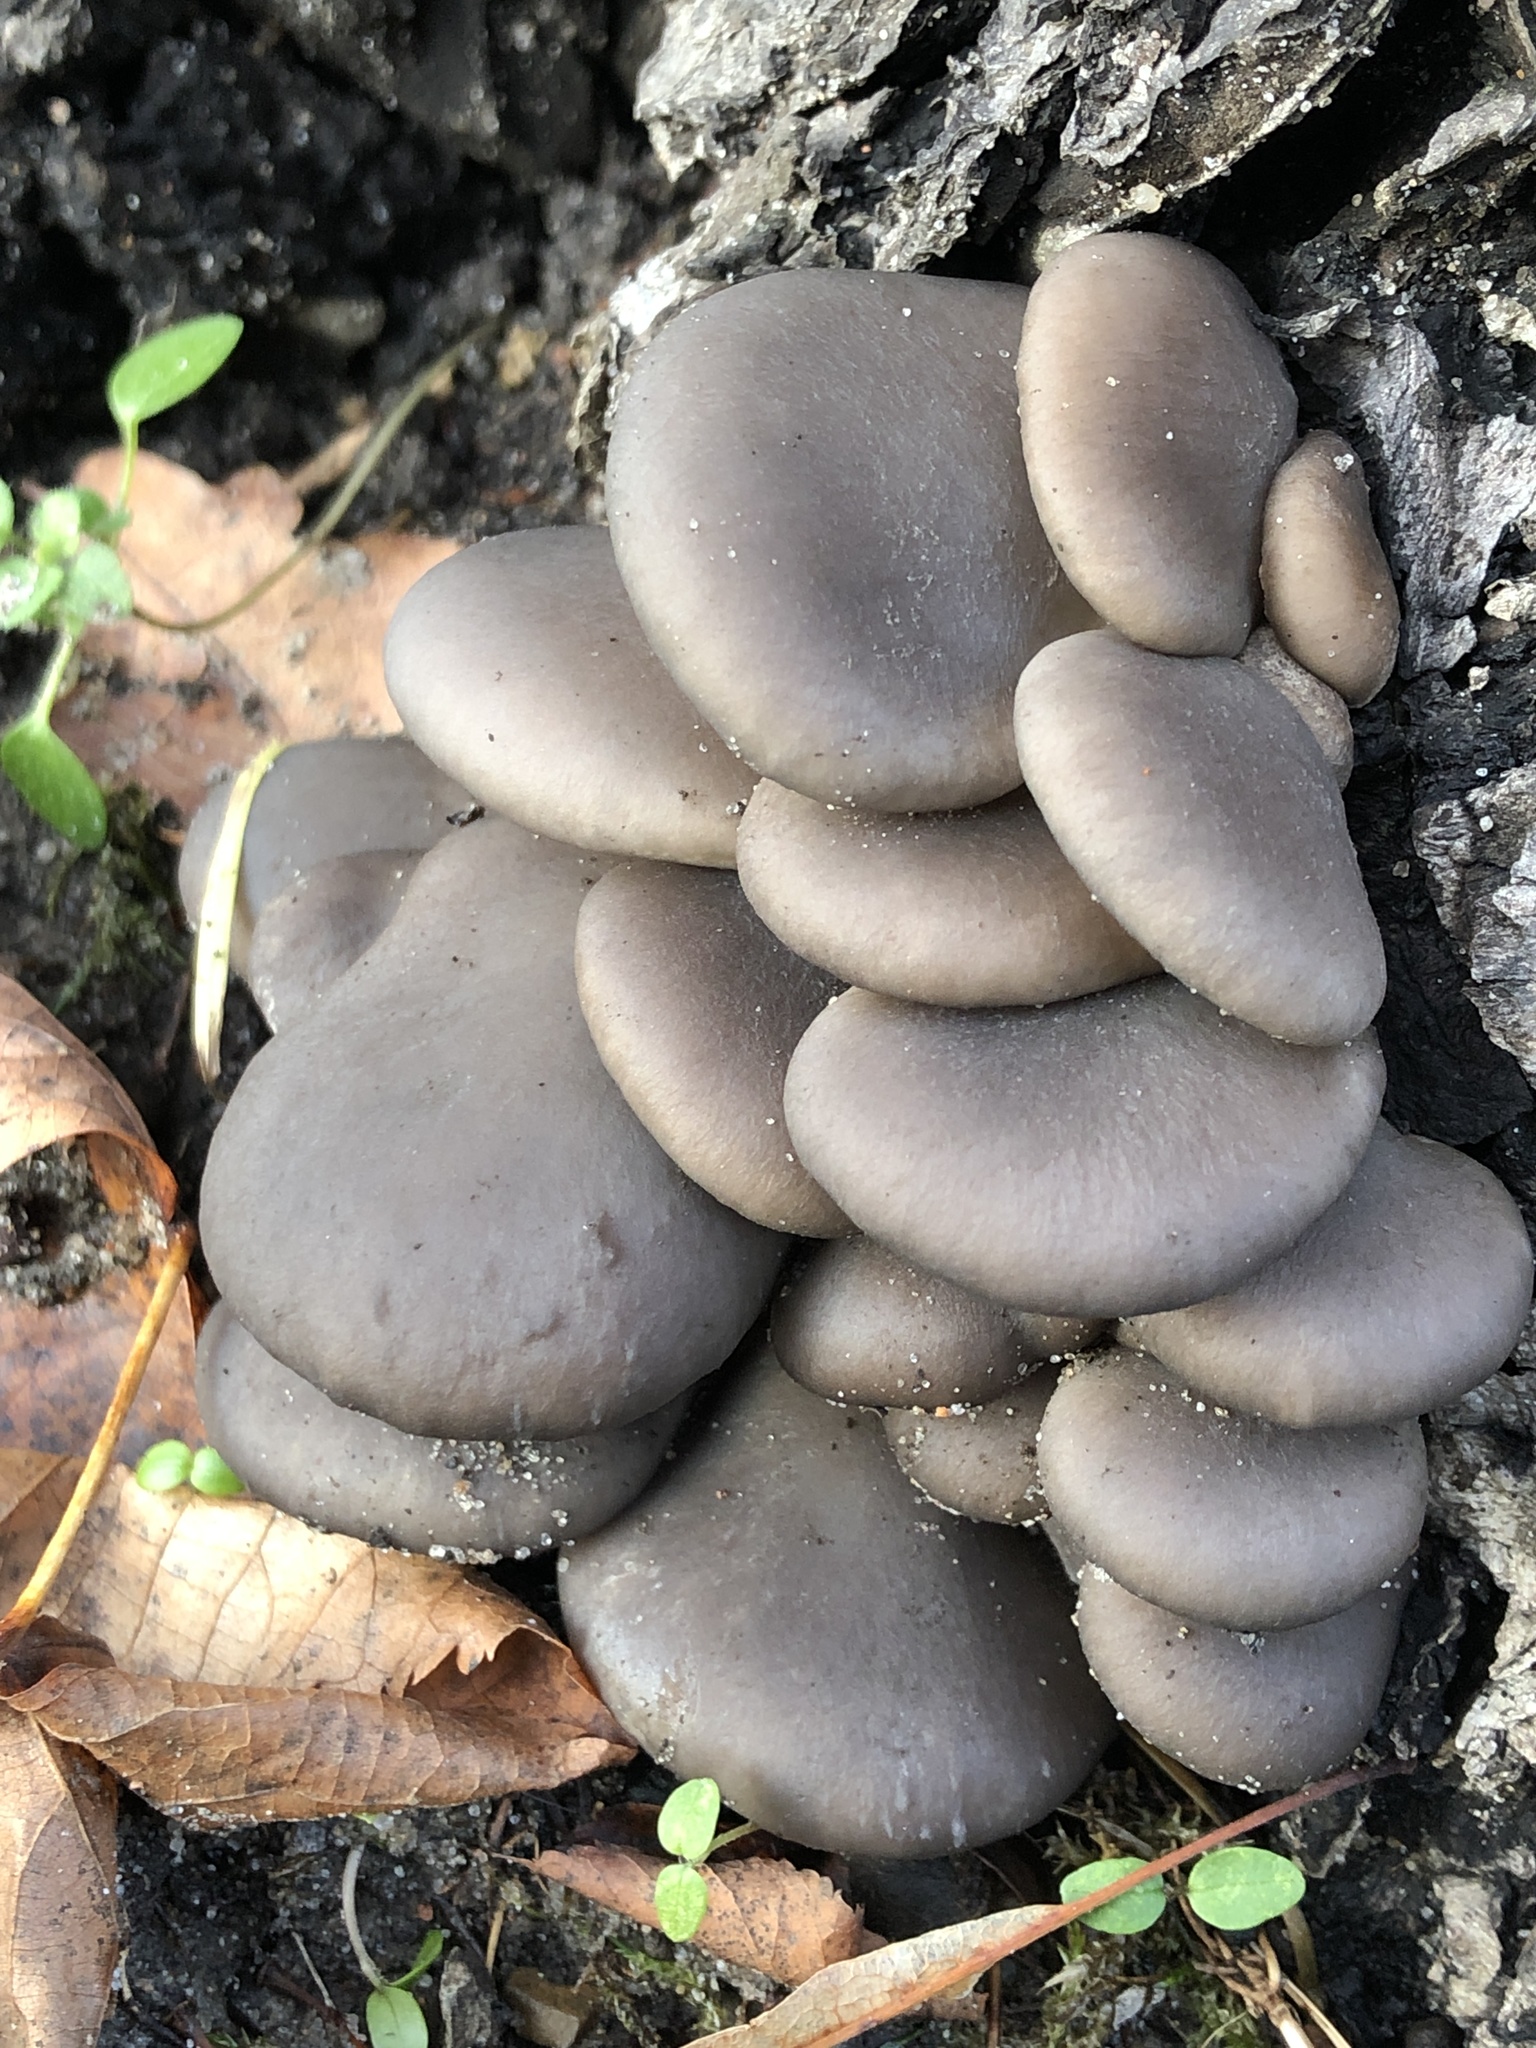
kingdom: Fungi
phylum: Basidiomycota
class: Agaricomycetes
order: Agaricales
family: Pleurotaceae
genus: Pleurotus
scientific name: Pleurotus ostreatus
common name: Oyster mushroom
